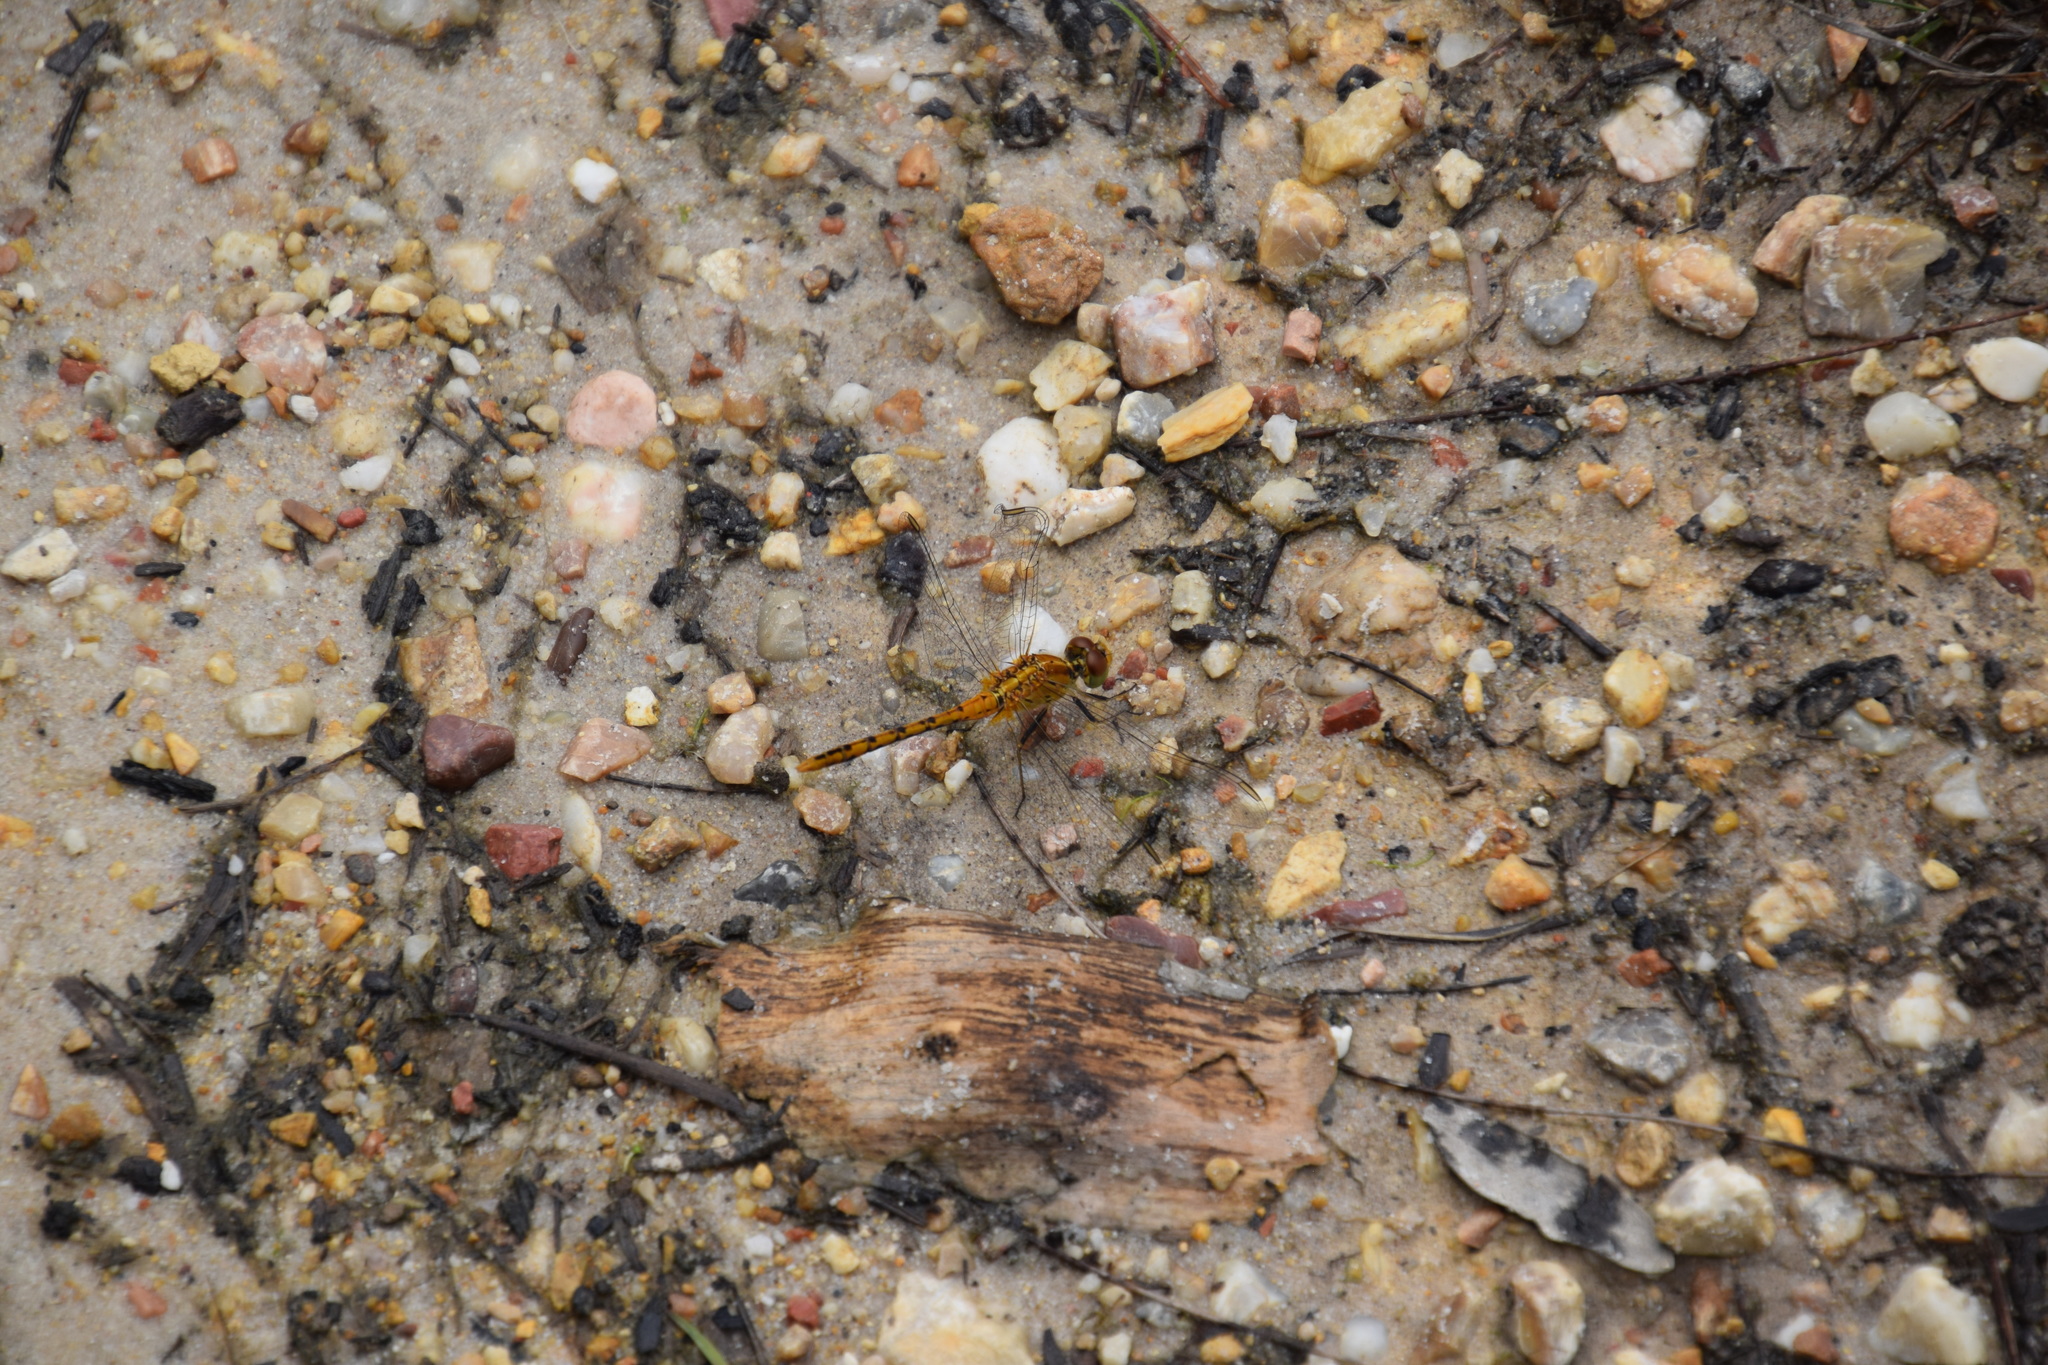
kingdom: Animalia
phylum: Arthropoda
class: Insecta
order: Odonata
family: Libellulidae
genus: Diplacodes
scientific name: Diplacodes bipunctata
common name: Red percher dragonfly
